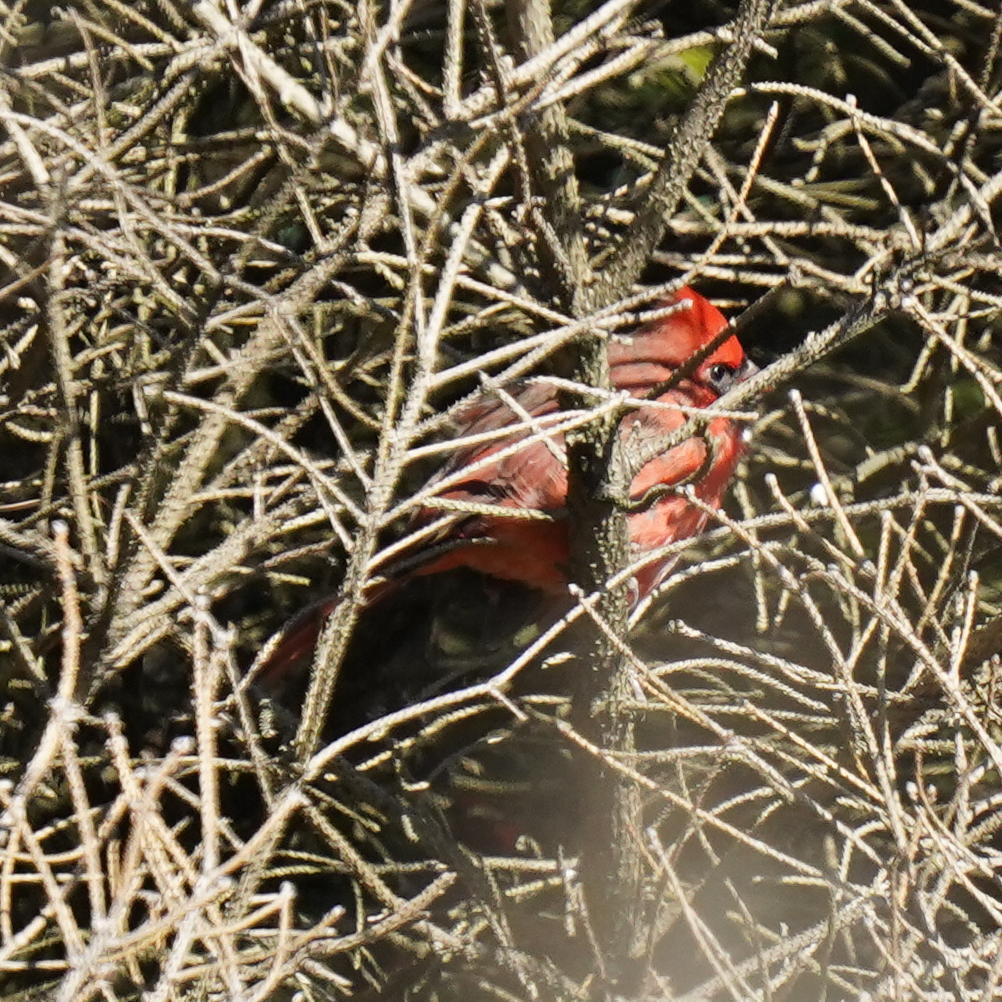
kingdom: Animalia
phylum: Chordata
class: Aves
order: Passeriformes
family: Cardinalidae
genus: Cardinalis
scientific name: Cardinalis cardinalis
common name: Northern cardinal
